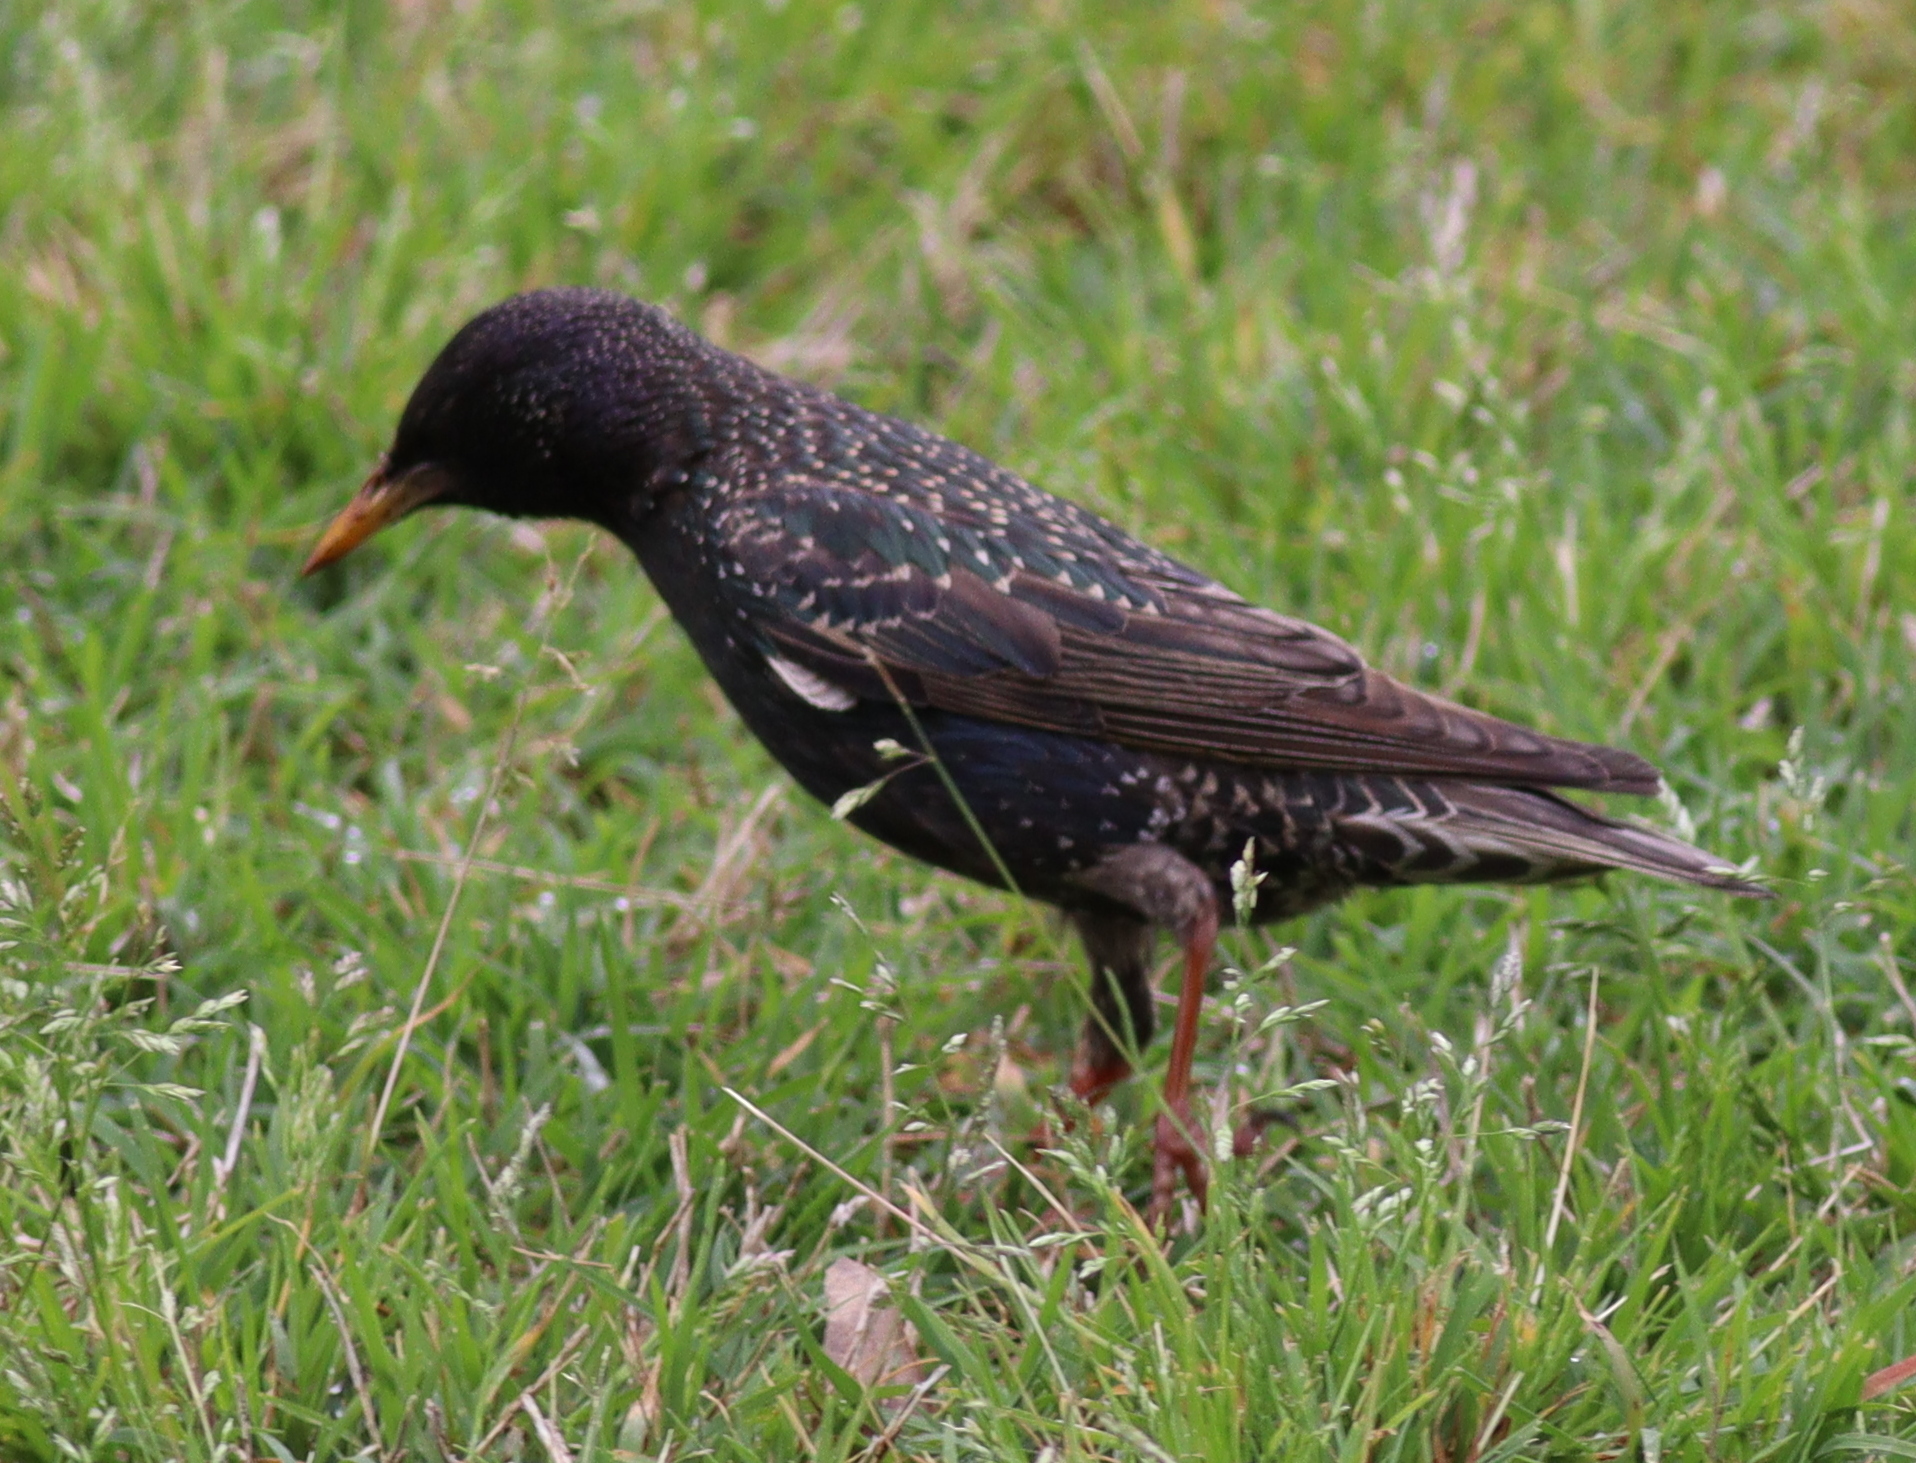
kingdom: Animalia
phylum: Chordata
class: Aves
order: Passeriformes
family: Sturnidae
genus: Sturnus
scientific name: Sturnus vulgaris
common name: Common starling
